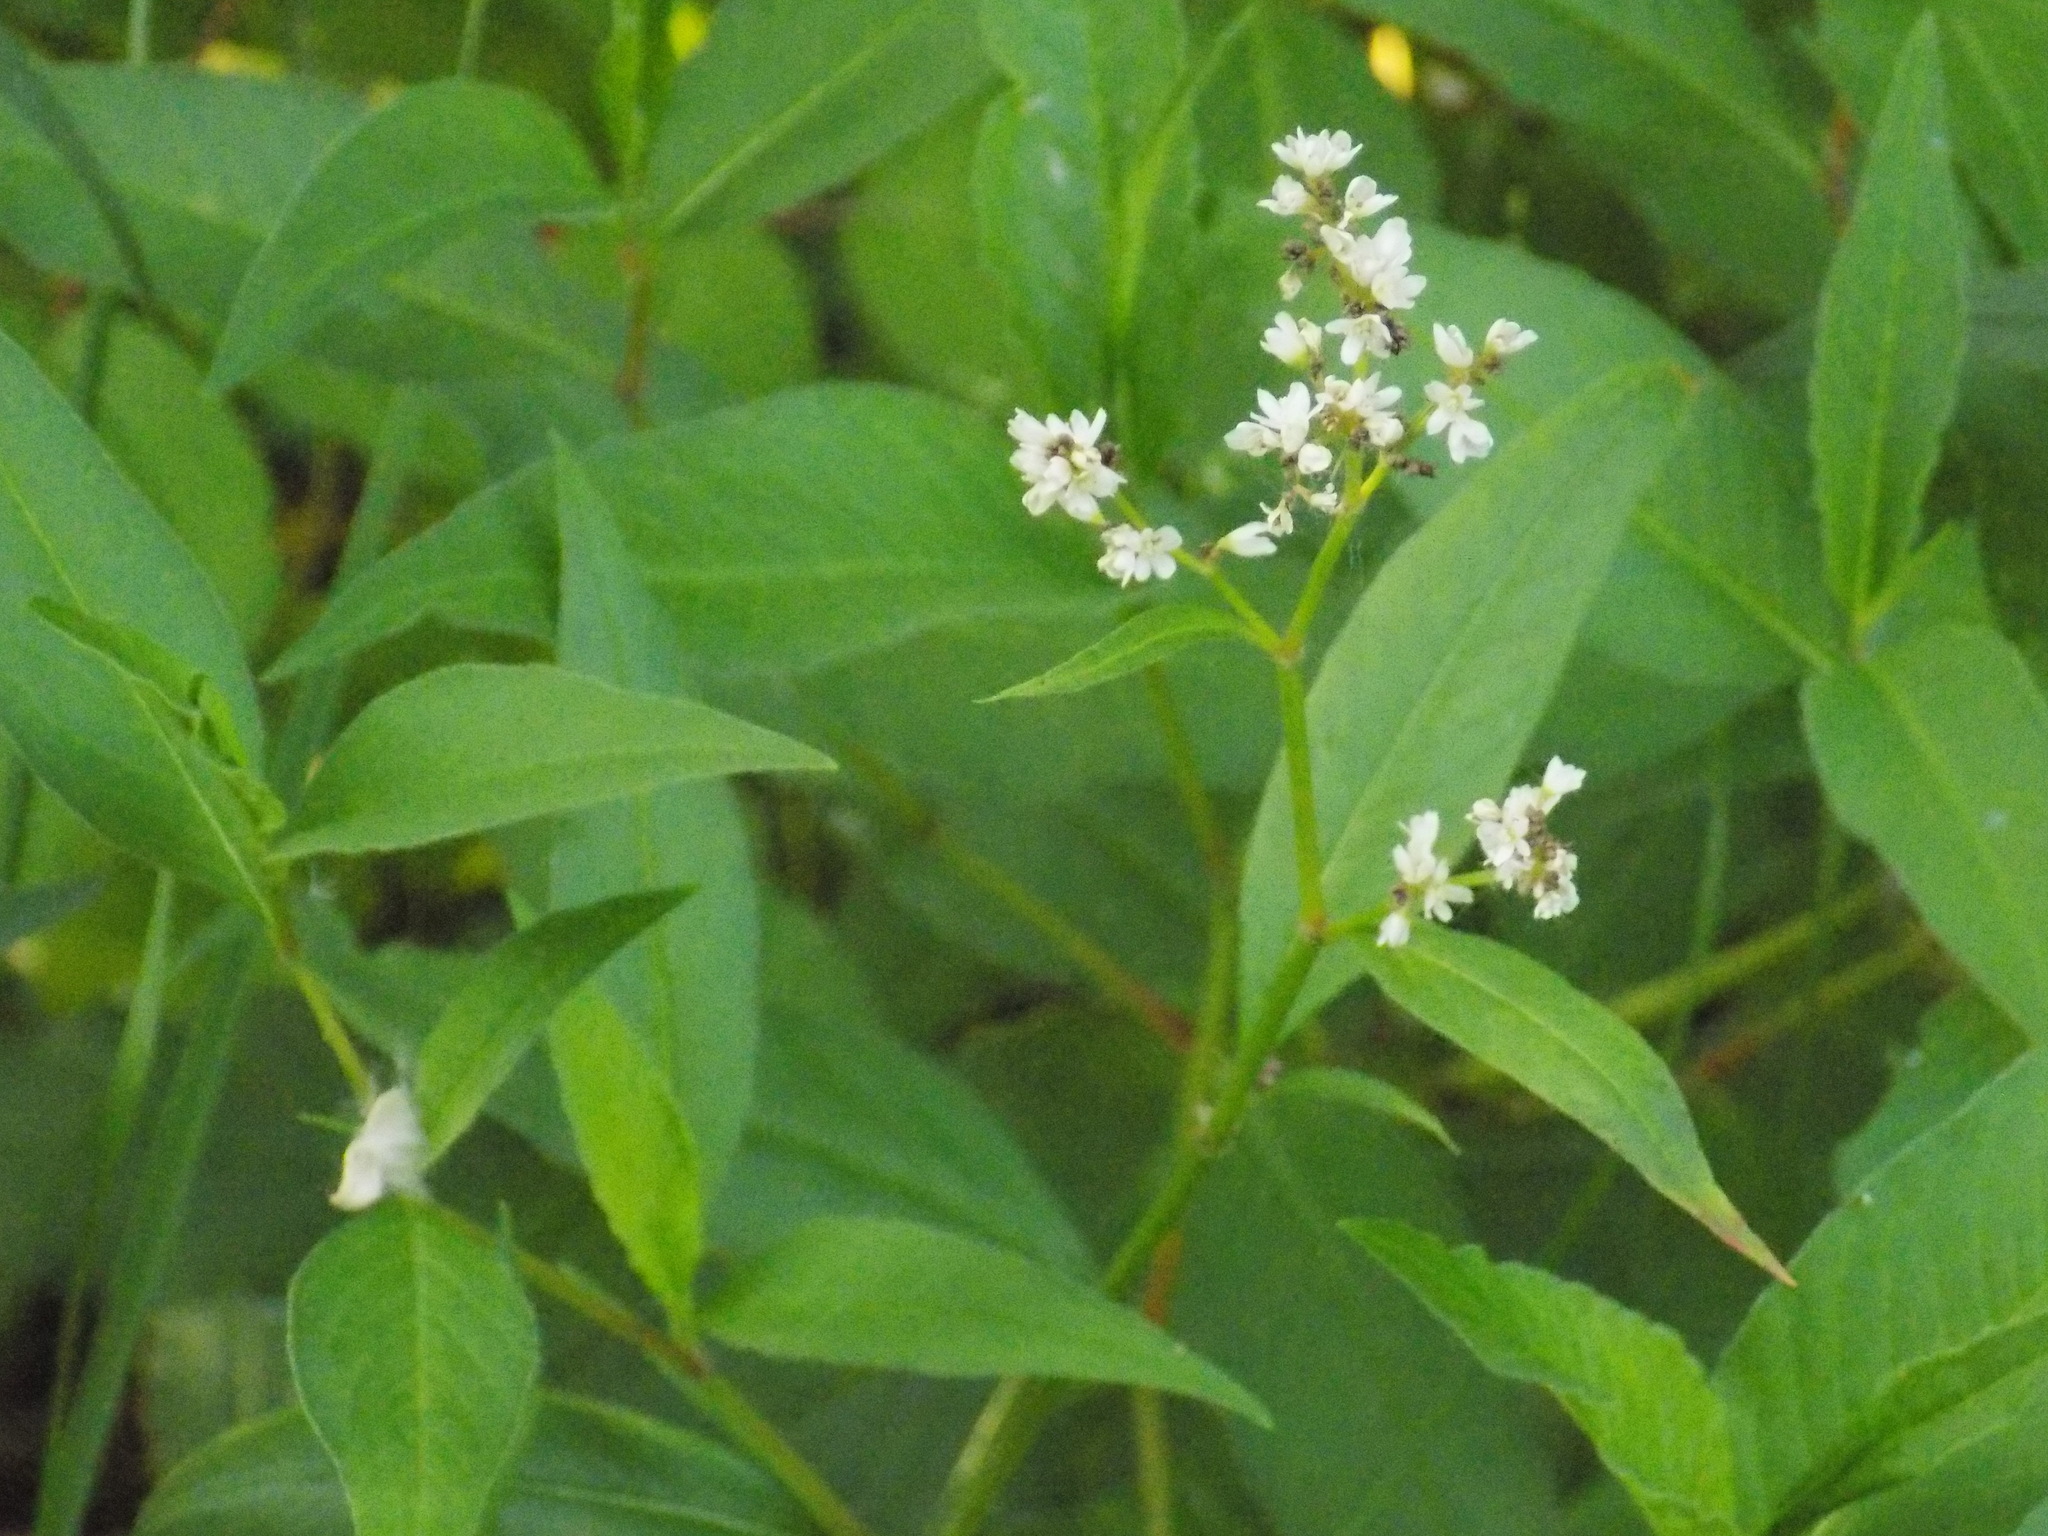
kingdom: Plantae
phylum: Tracheophyta
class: Magnoliopsida
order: Caryophyllales
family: Polygonaceae
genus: Koenigia
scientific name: Koenigia alpina
